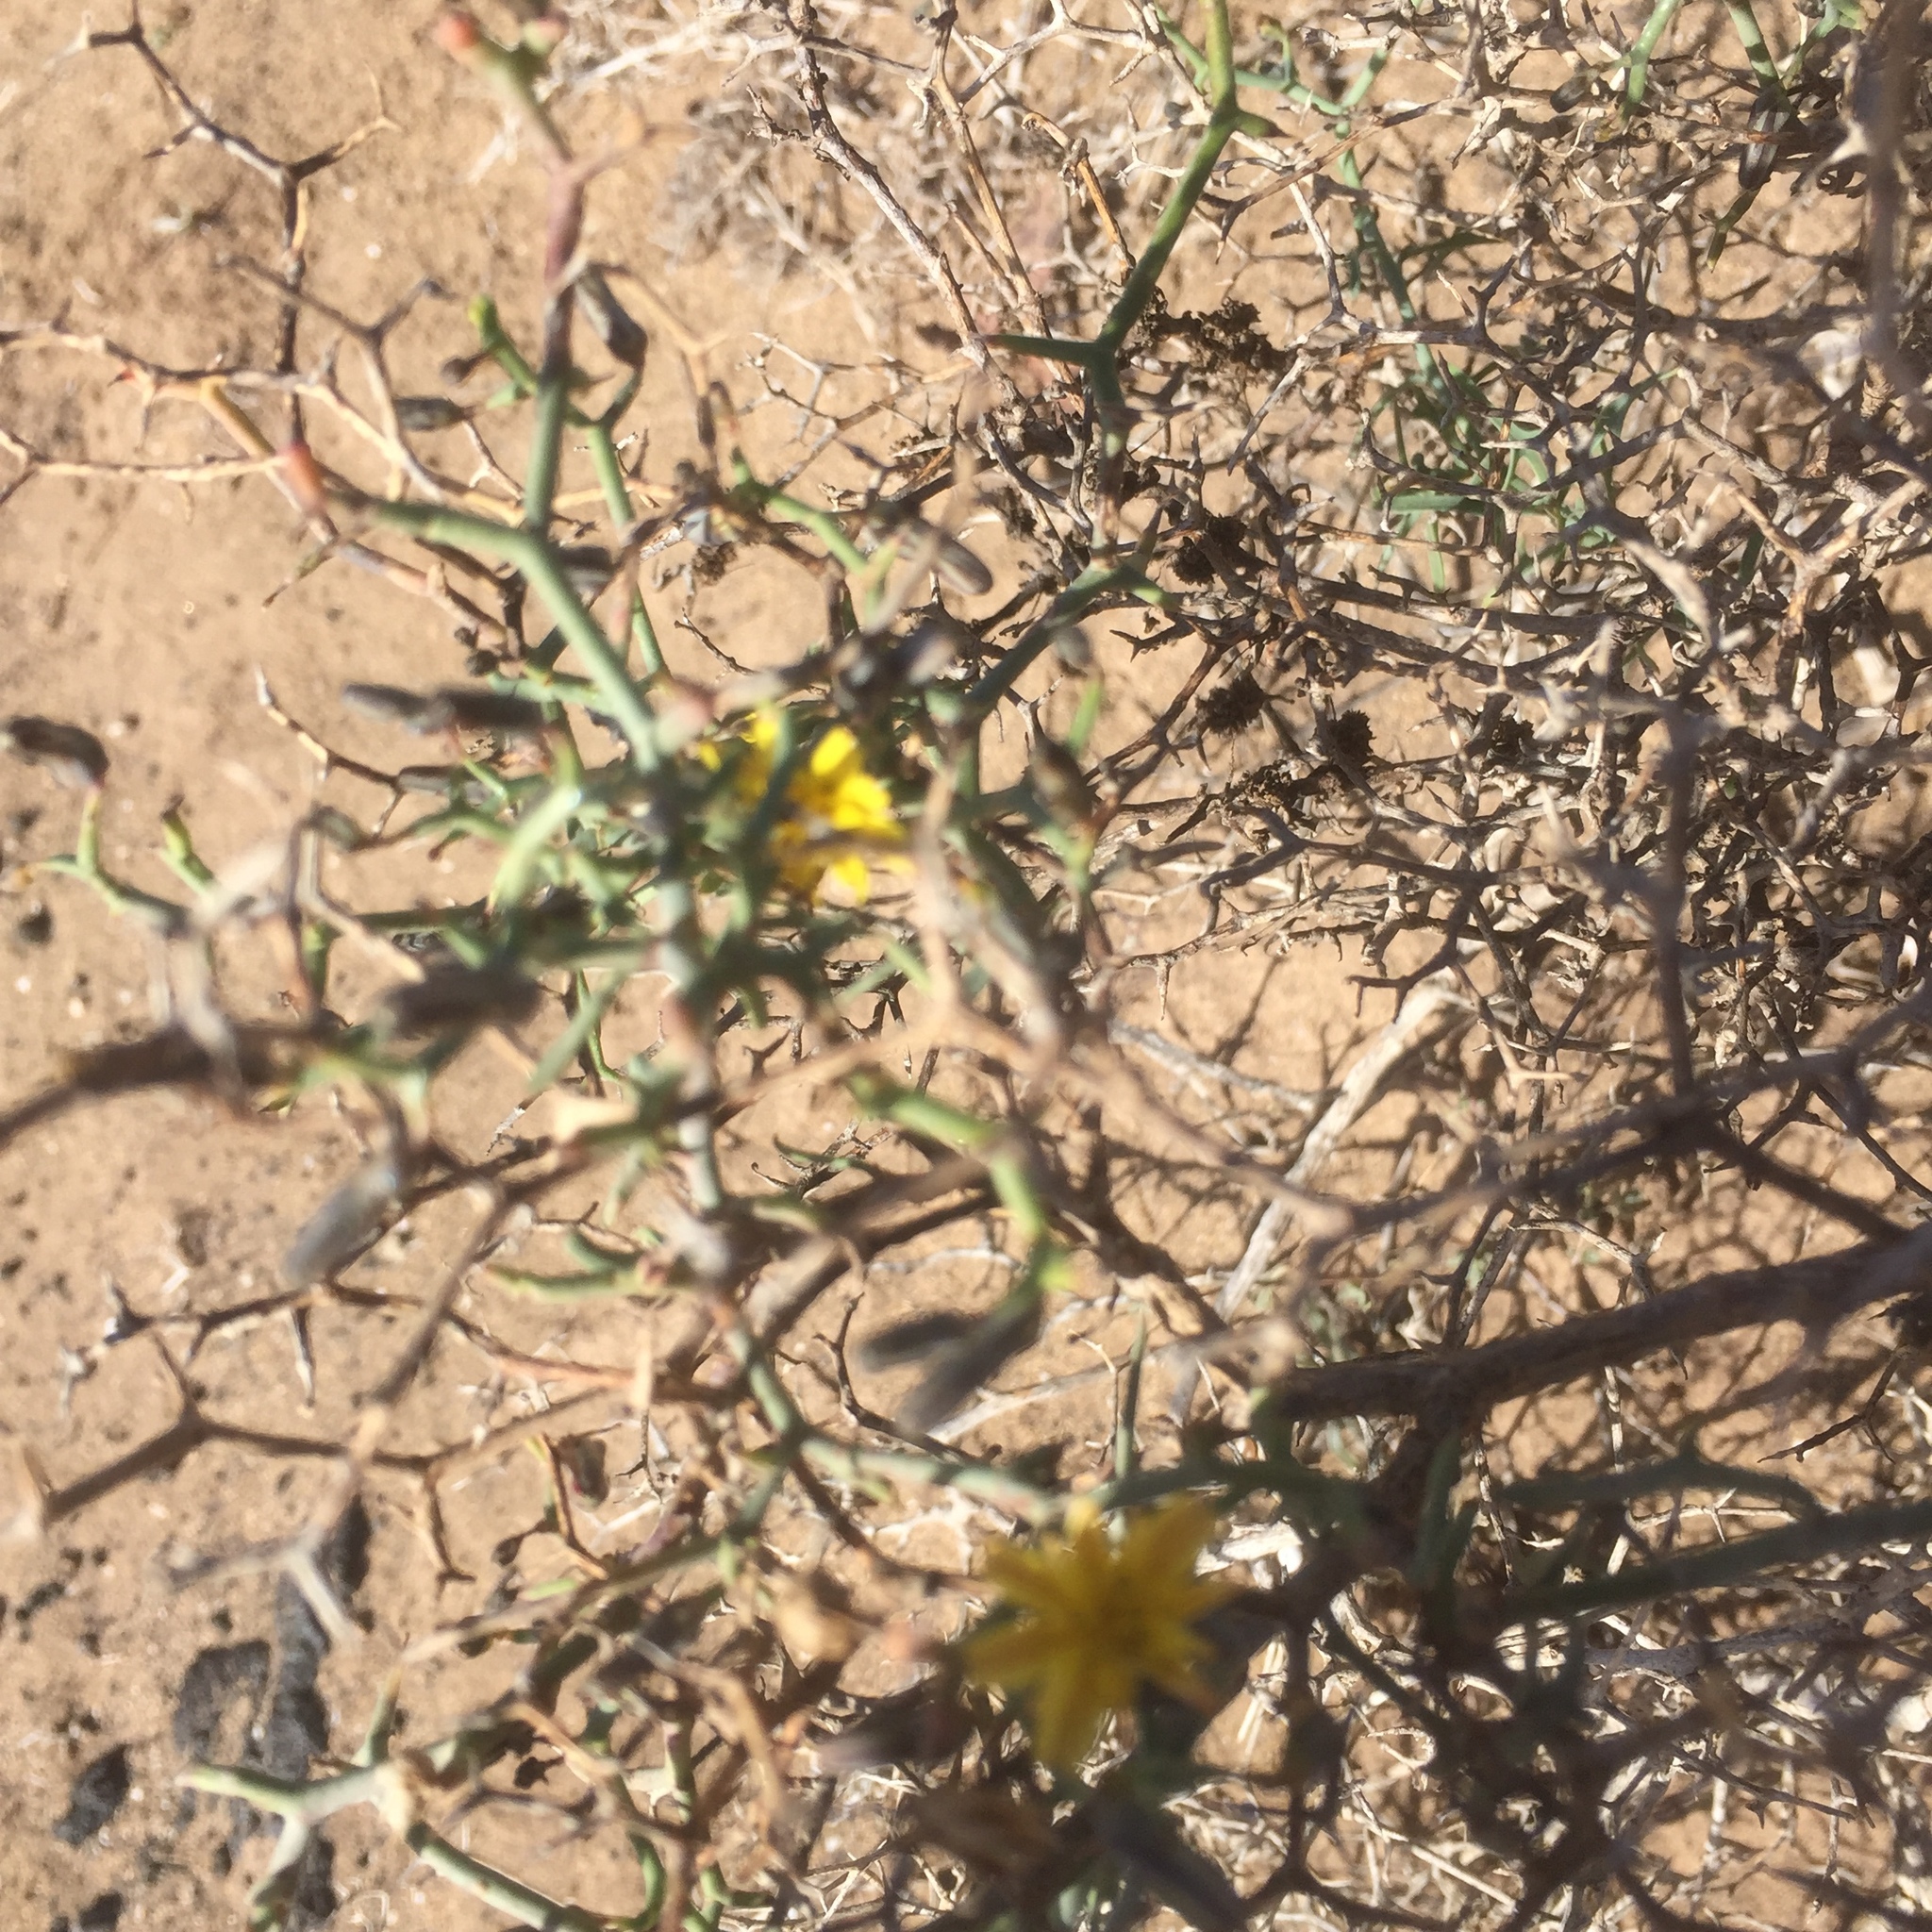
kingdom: Plantae
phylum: Tracheophyta
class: Magnoliopsida
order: Asterales
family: Asteraceae
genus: Launaea
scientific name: Launaea arborescens
